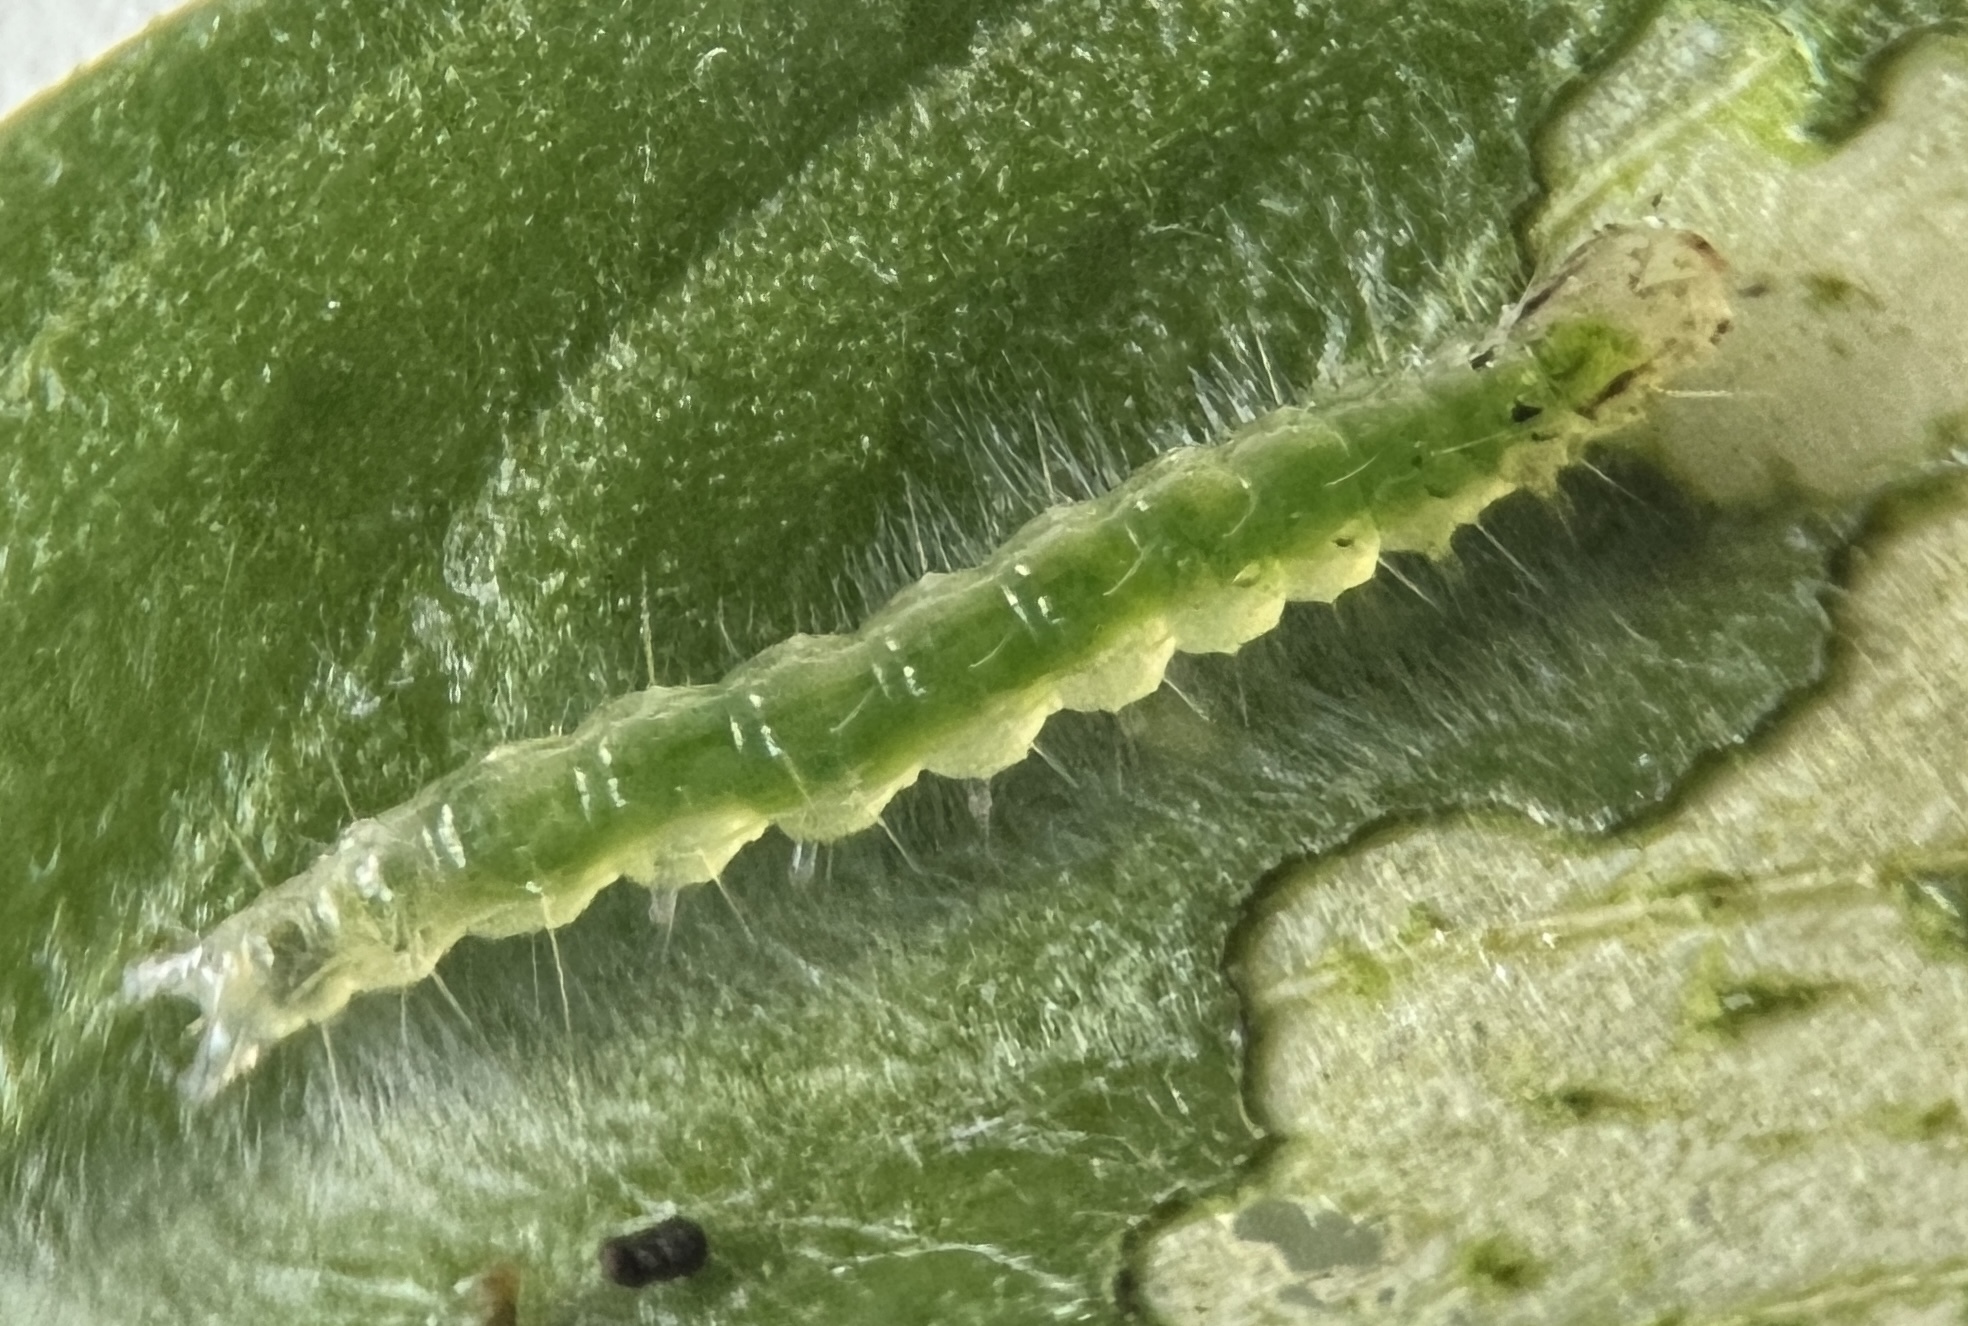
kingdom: Animalia
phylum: Arthropoda
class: Insecta
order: Lepidoptera
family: Crambidae
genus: Syngamia
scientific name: Syngamia florella
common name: Orange-spotted flower moth
